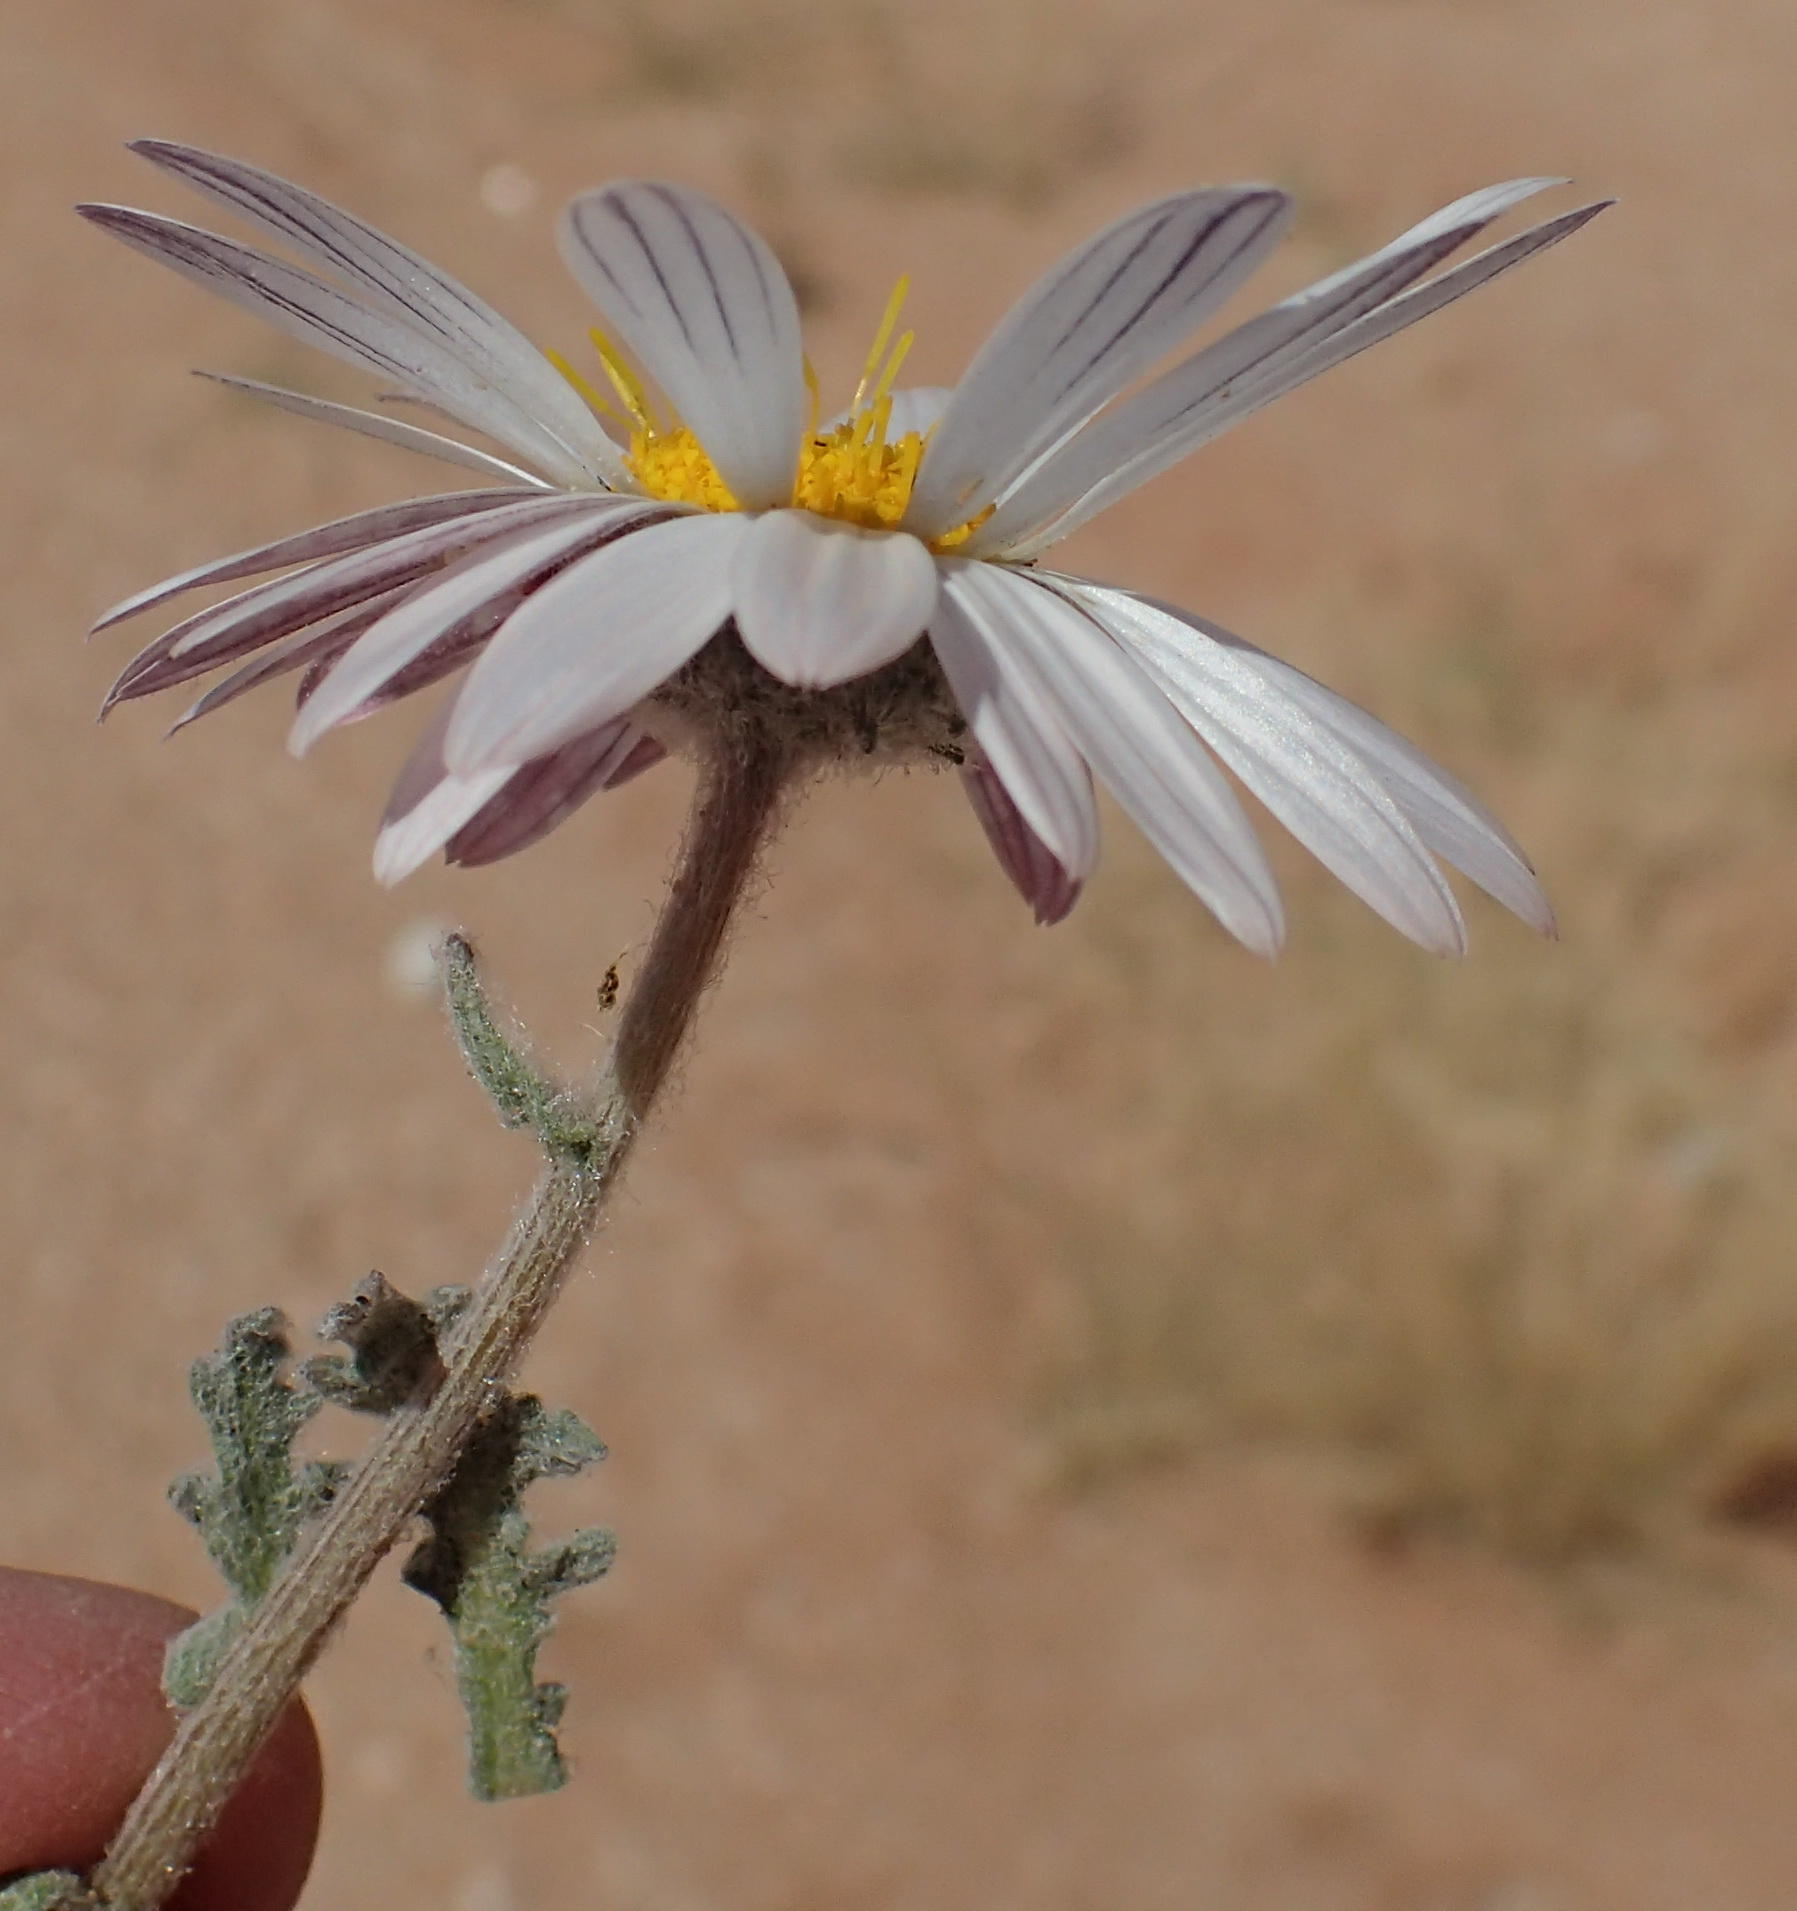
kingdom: Plantae
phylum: Tracheophyta
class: Magnoliopsida
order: Asterales
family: Asteraceae
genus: Arctotis
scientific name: Arctotis leiocarpa
